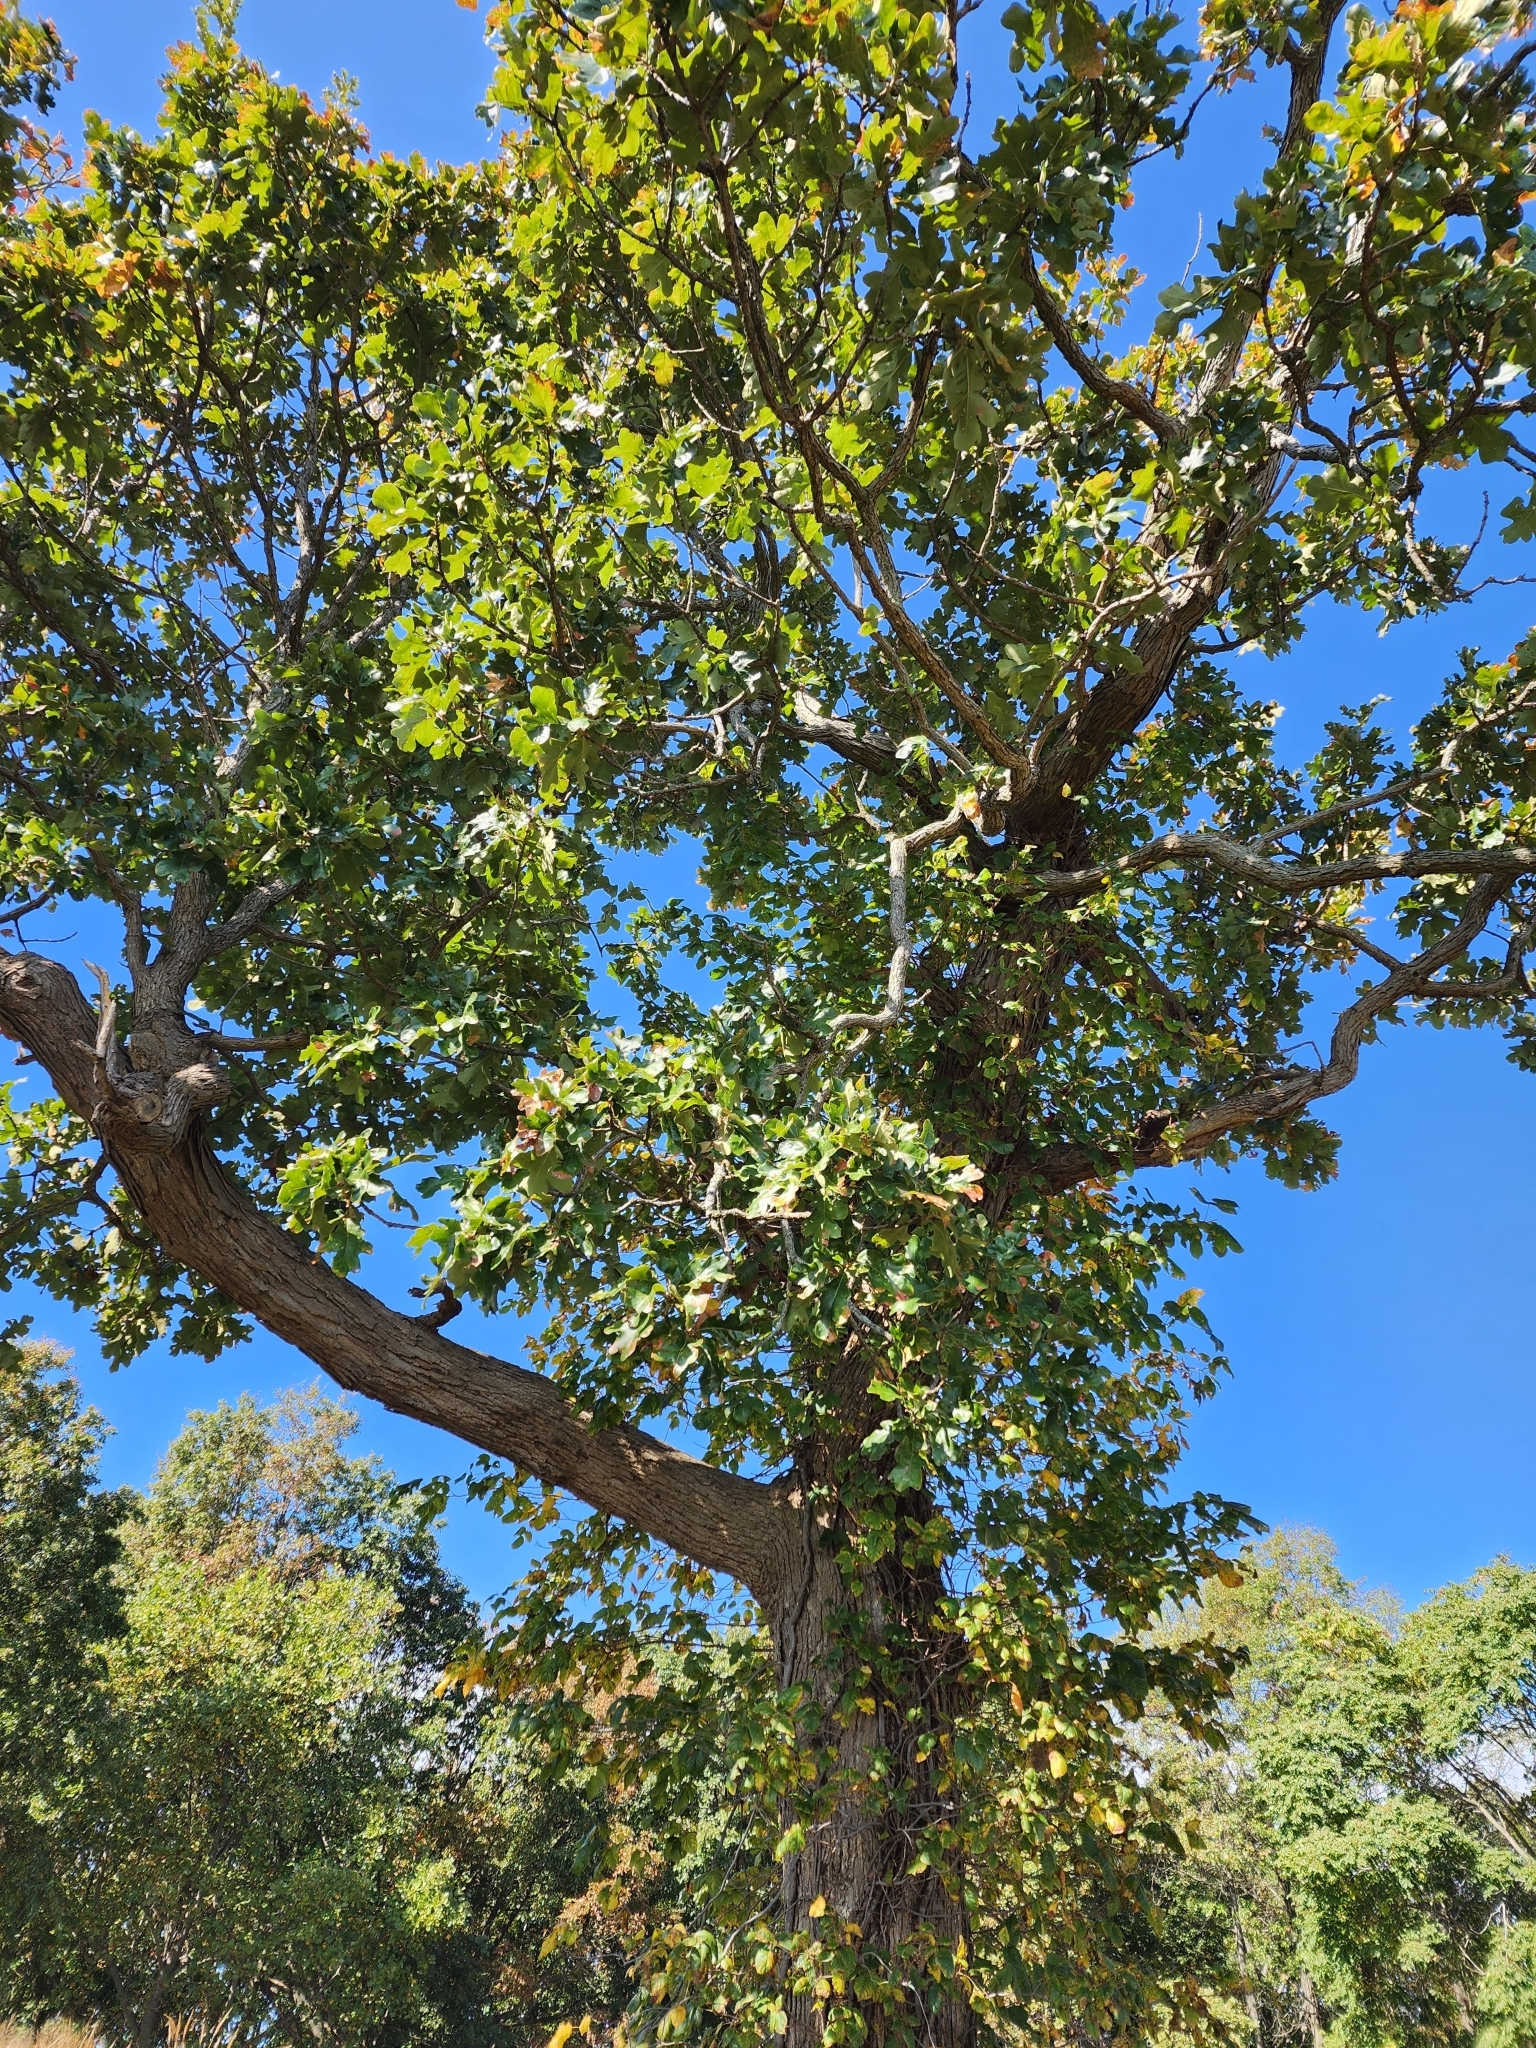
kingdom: Plantae
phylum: Tracheophyta
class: Magnoliopsida
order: Fagales
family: Fagaceae
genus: Quercus
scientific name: Quercus stellata
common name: Post oak
